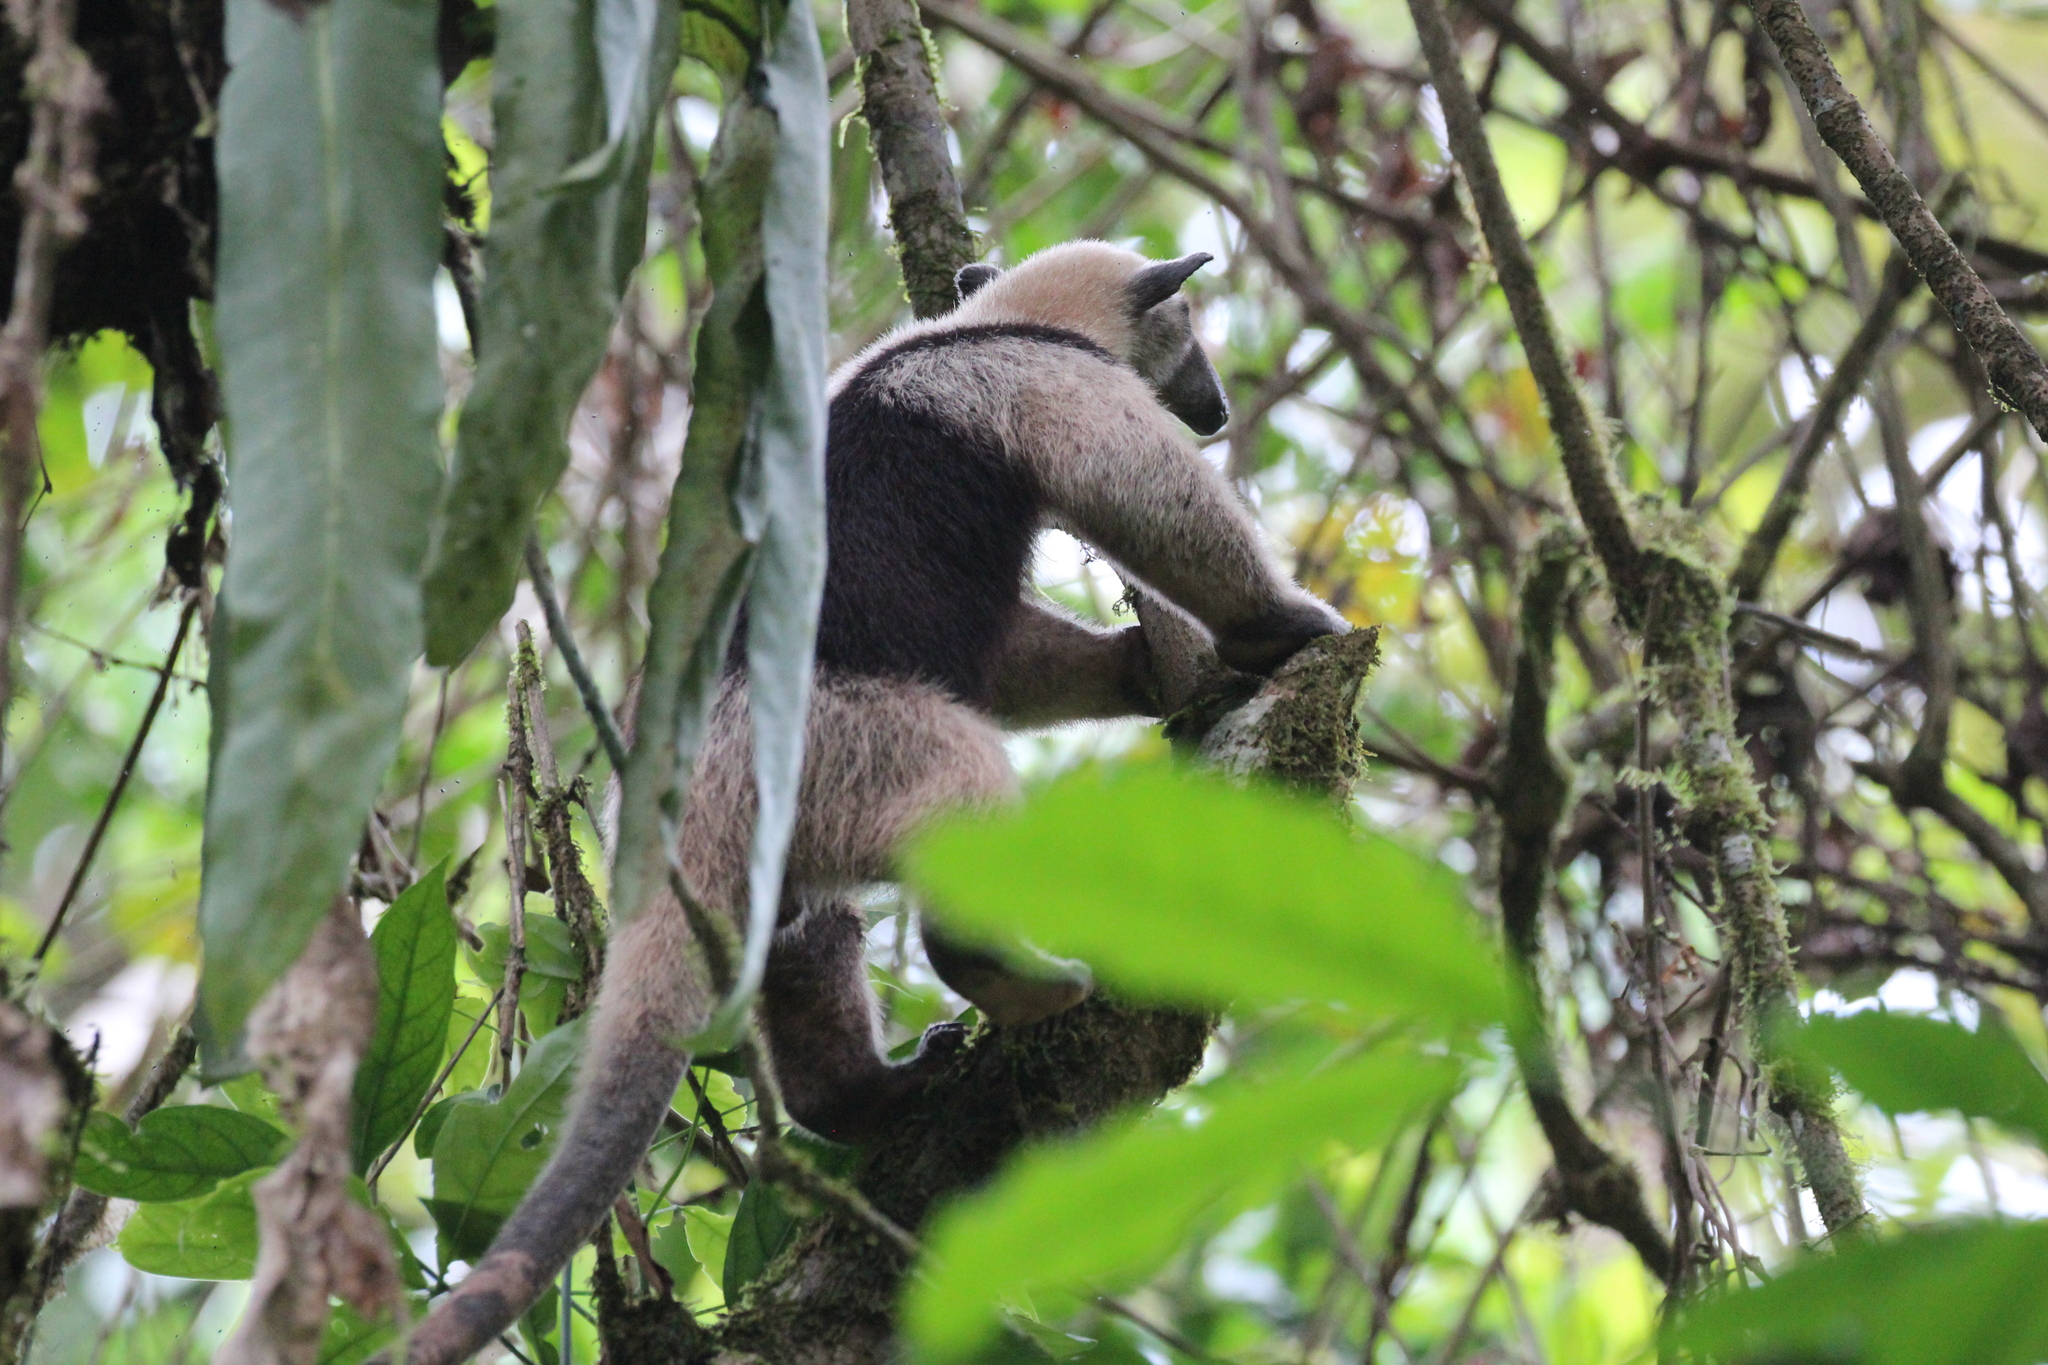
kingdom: Animalia
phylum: Chordata
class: Mammalia
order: Pilosa
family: Myrmecophagidae
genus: Tamandua
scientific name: Tamandua mexicana
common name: Northern tamandua
